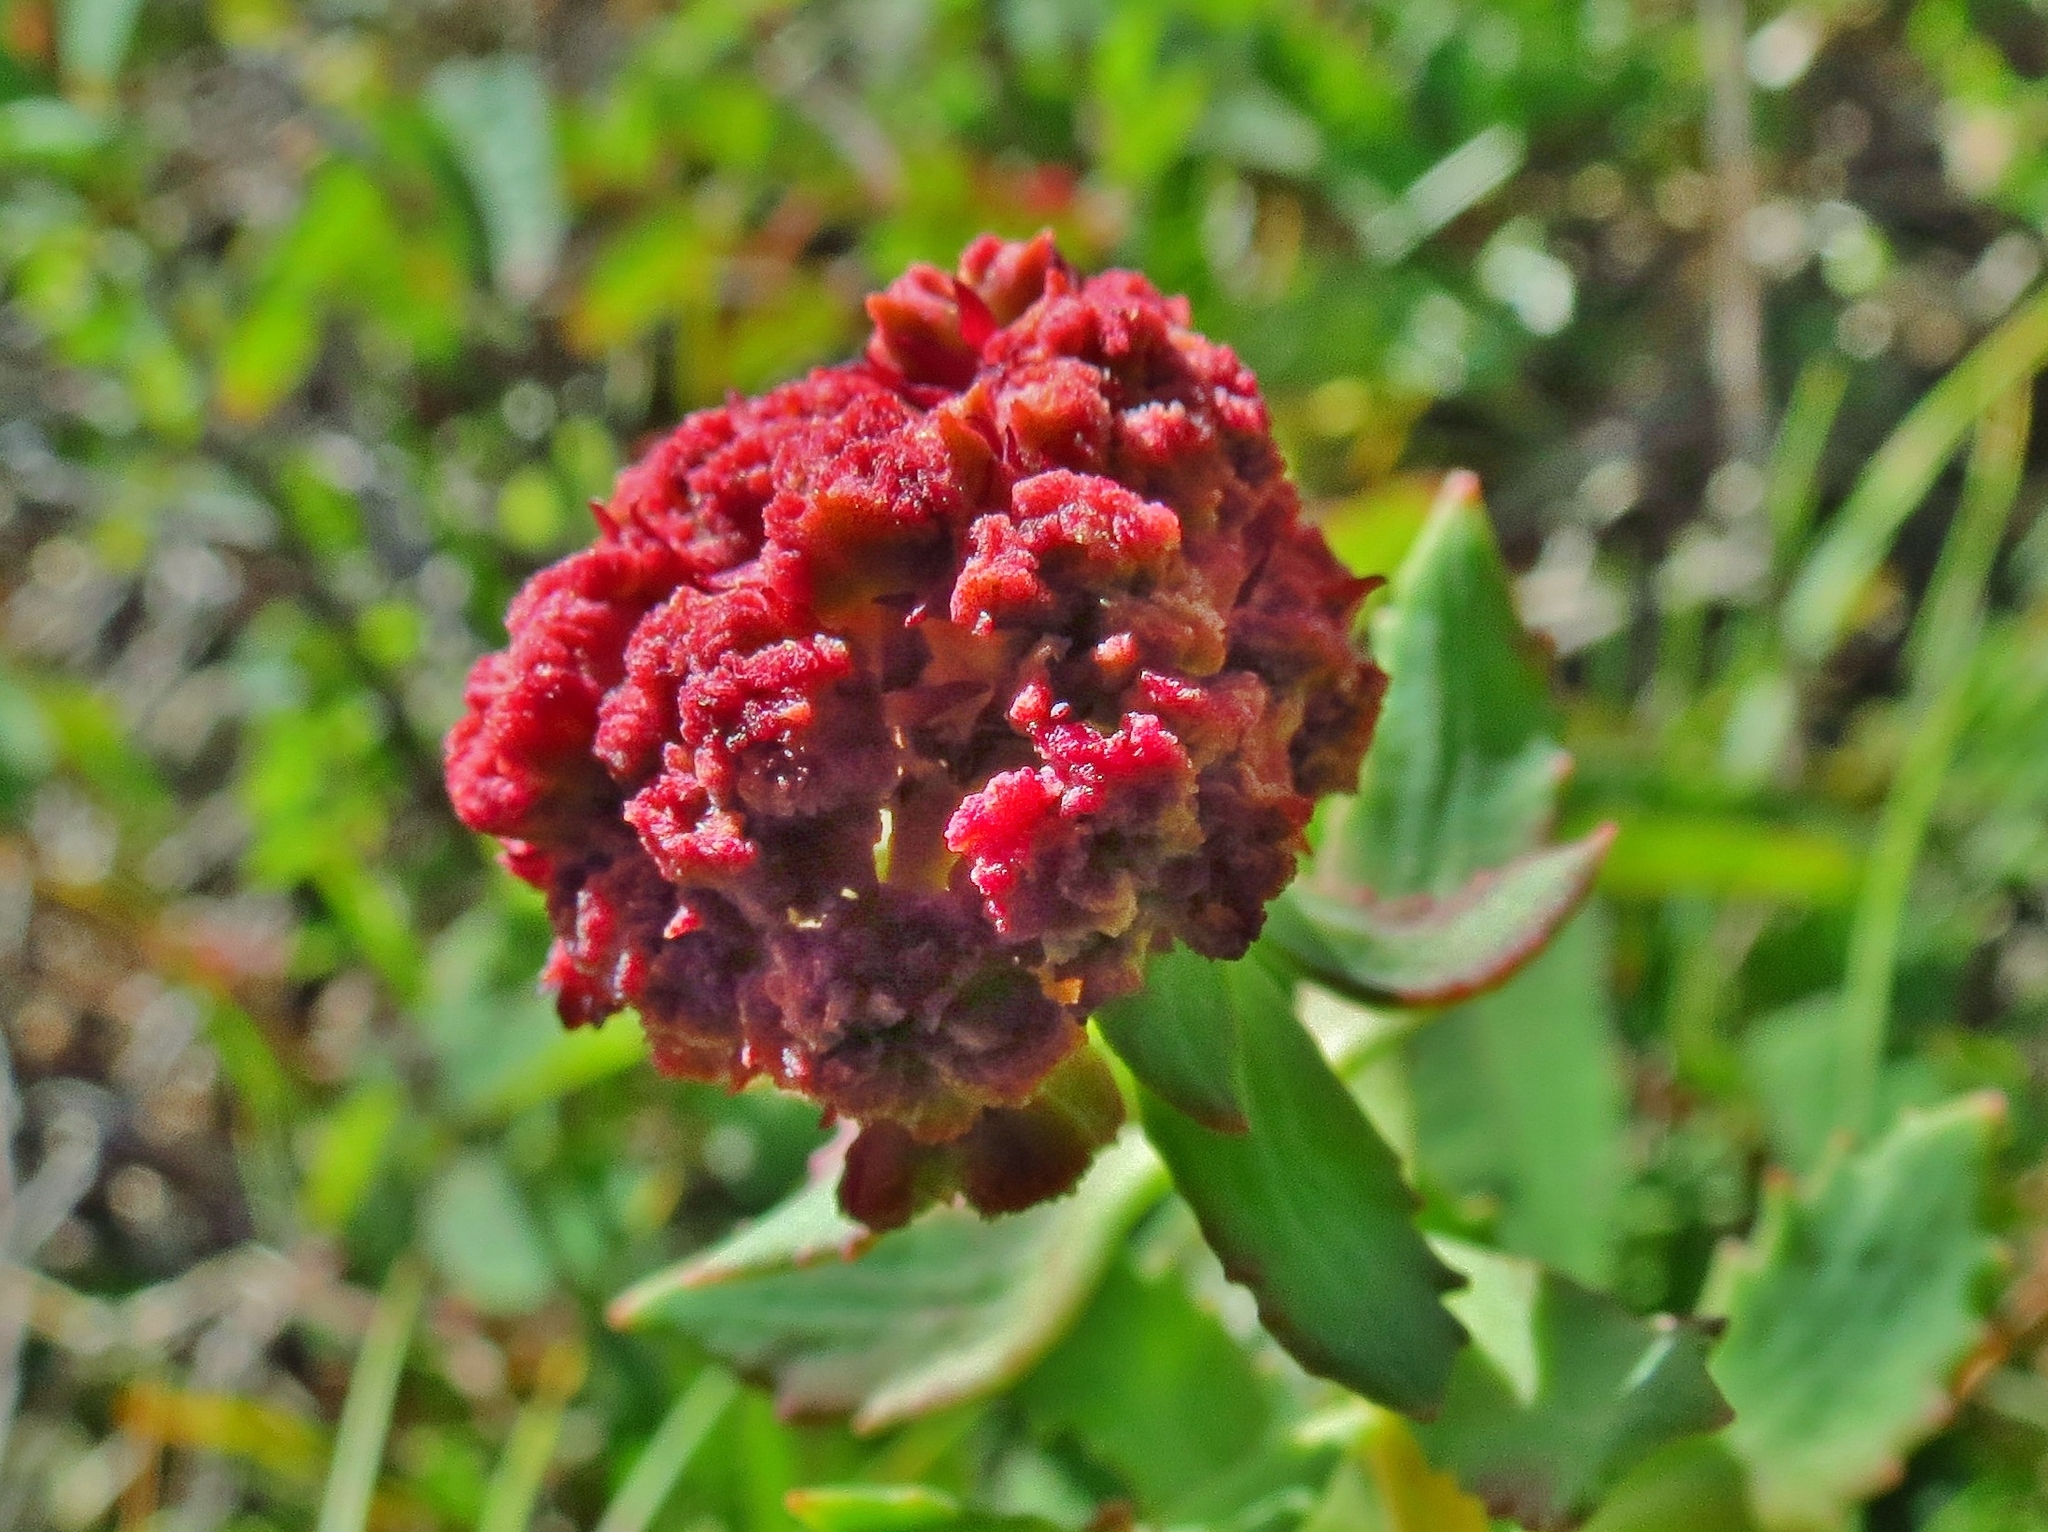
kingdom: Plantae
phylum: Tracheophyta
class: Magnoliopsida
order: Saxifragales
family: Crassulaceae
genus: Rhodiola
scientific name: Rhodiola integrifolia
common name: Western roseroot
